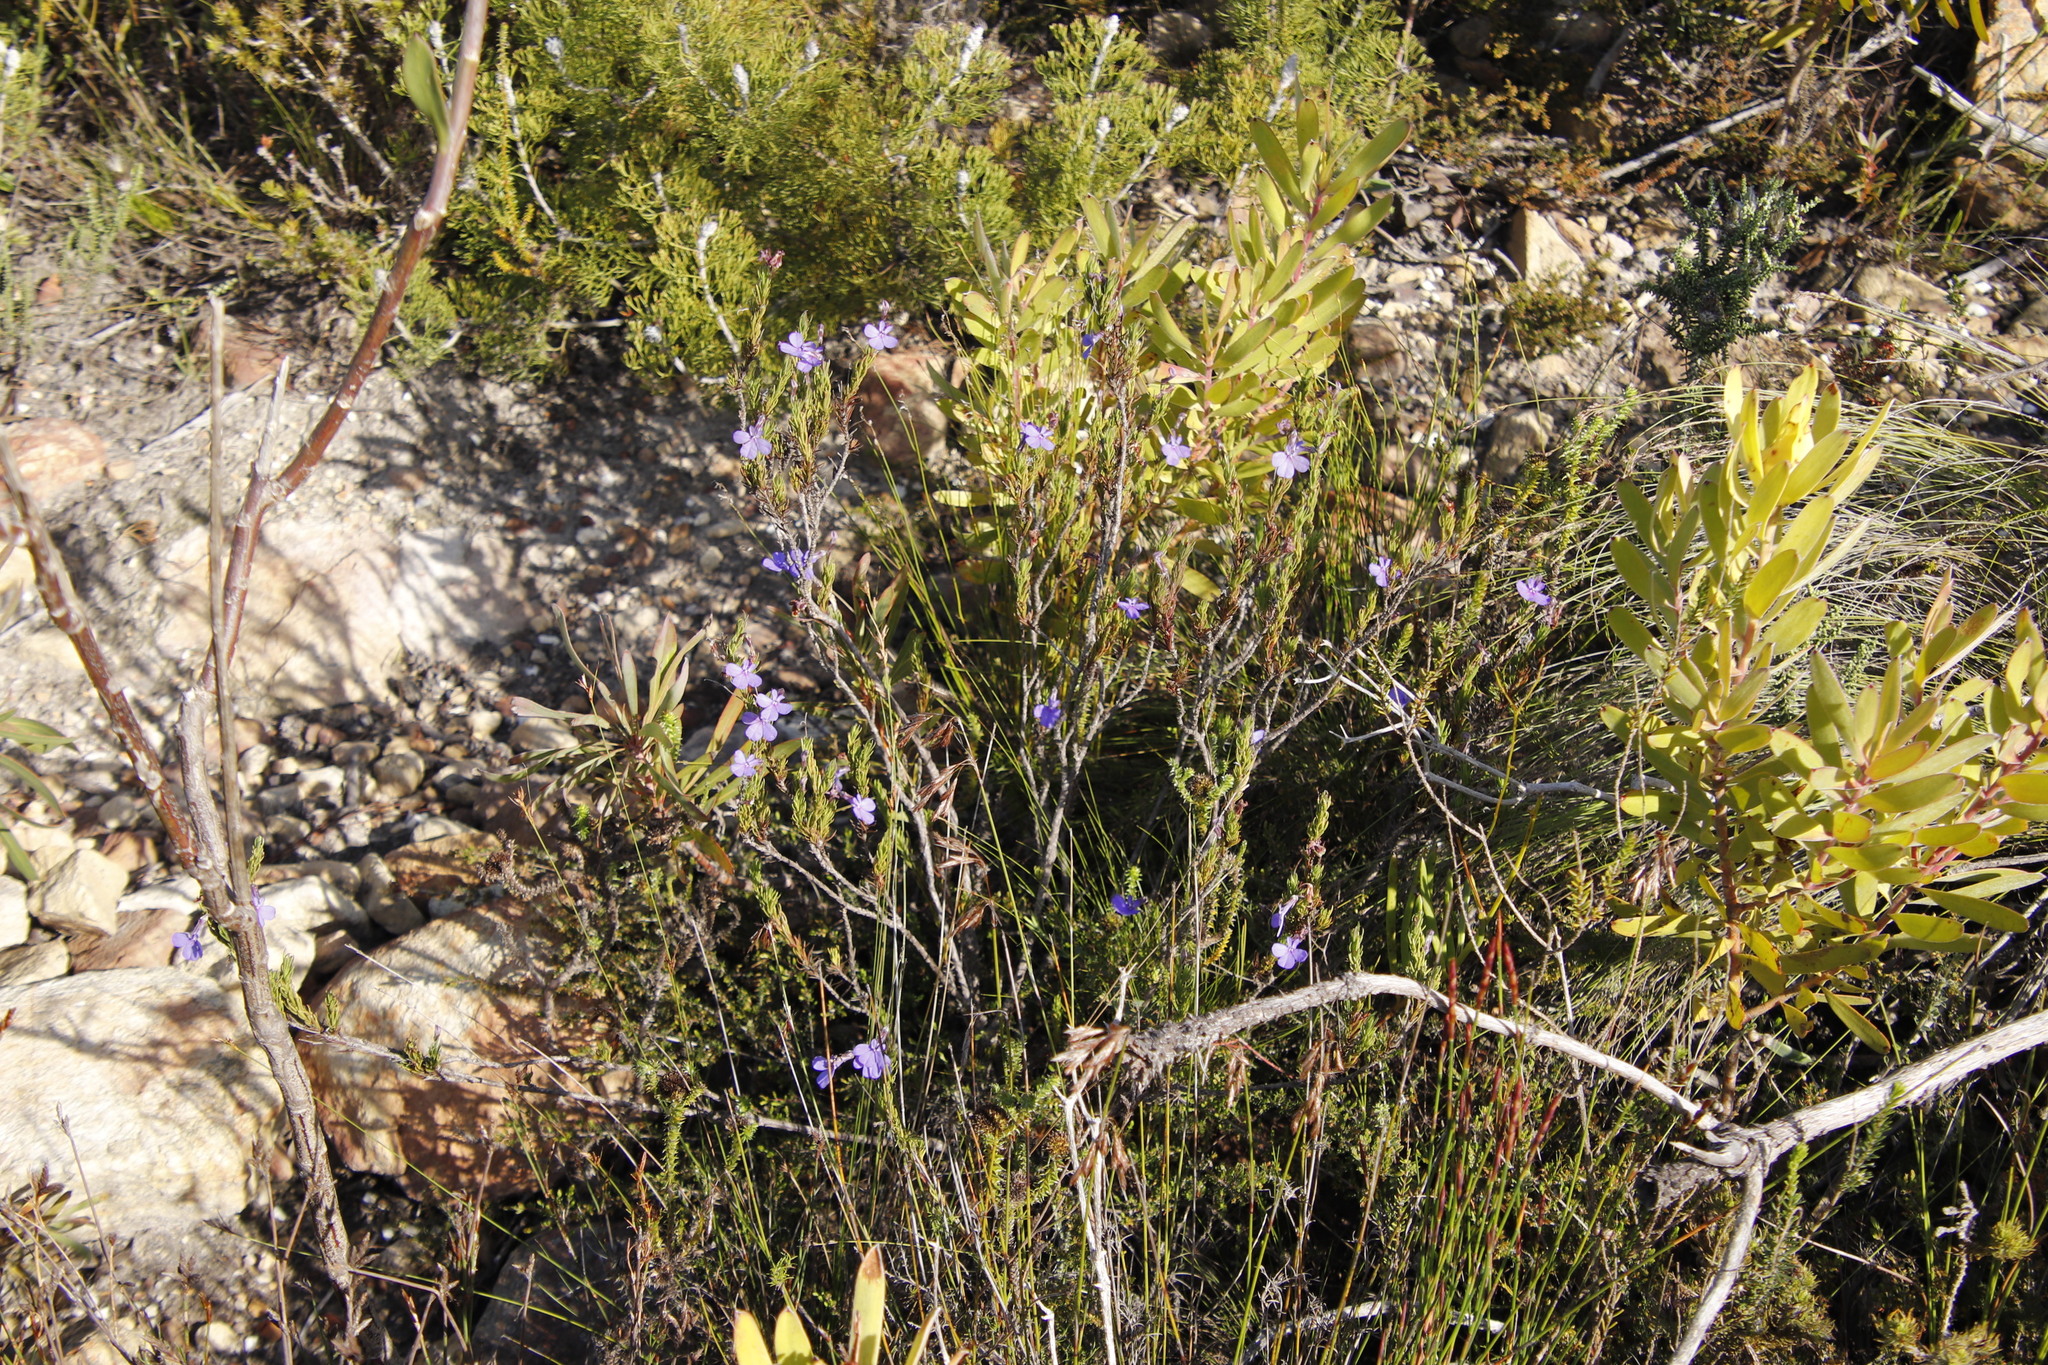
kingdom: Plantae
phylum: Tracheophyta
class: Magnoliopsida
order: Asterales
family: Campanulaceae
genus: Lobelia
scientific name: Lobelia pinifolia
